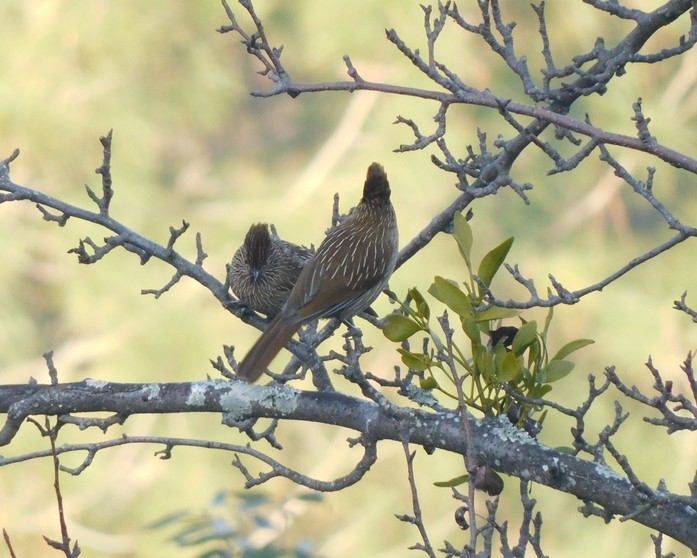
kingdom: Animalia
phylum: Chordata
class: Aves
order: Passeriformes
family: Leiothrichidae
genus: Garrulax
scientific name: Garrulax striatus
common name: Striated laughingthrush
